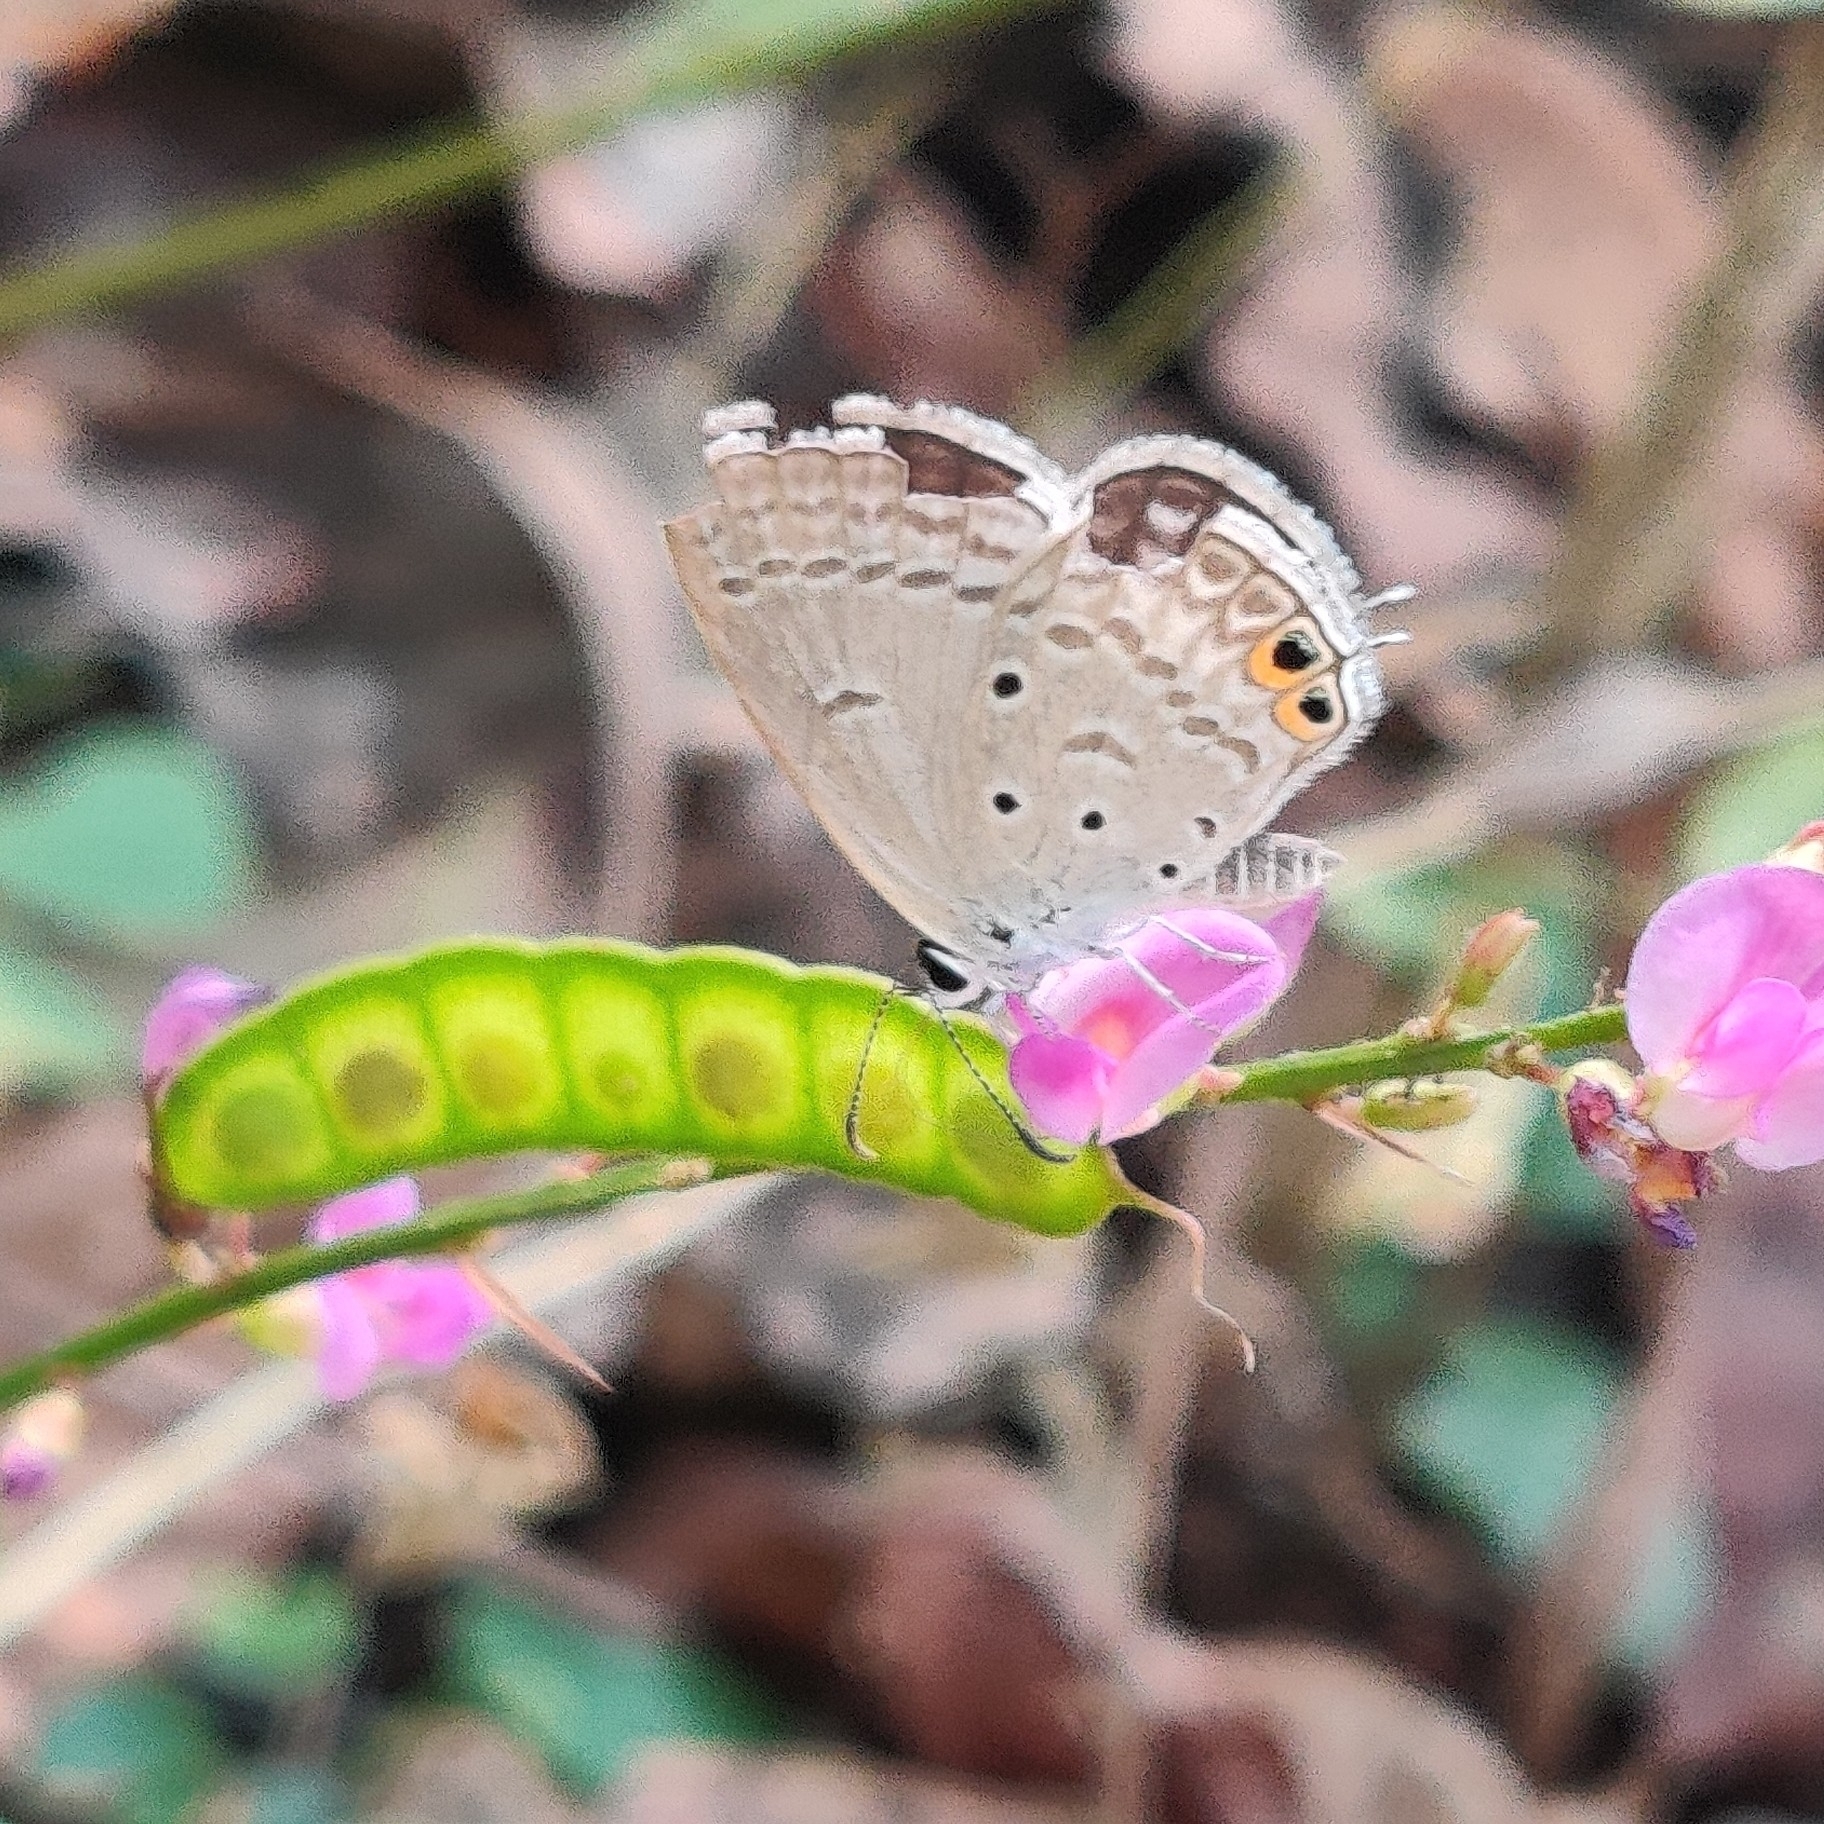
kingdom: Animalia
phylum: Arthropoda
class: Insecta
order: Lepidoptera
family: Lycaenidae
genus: Euchrysops
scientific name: Euchrysops cnejus
